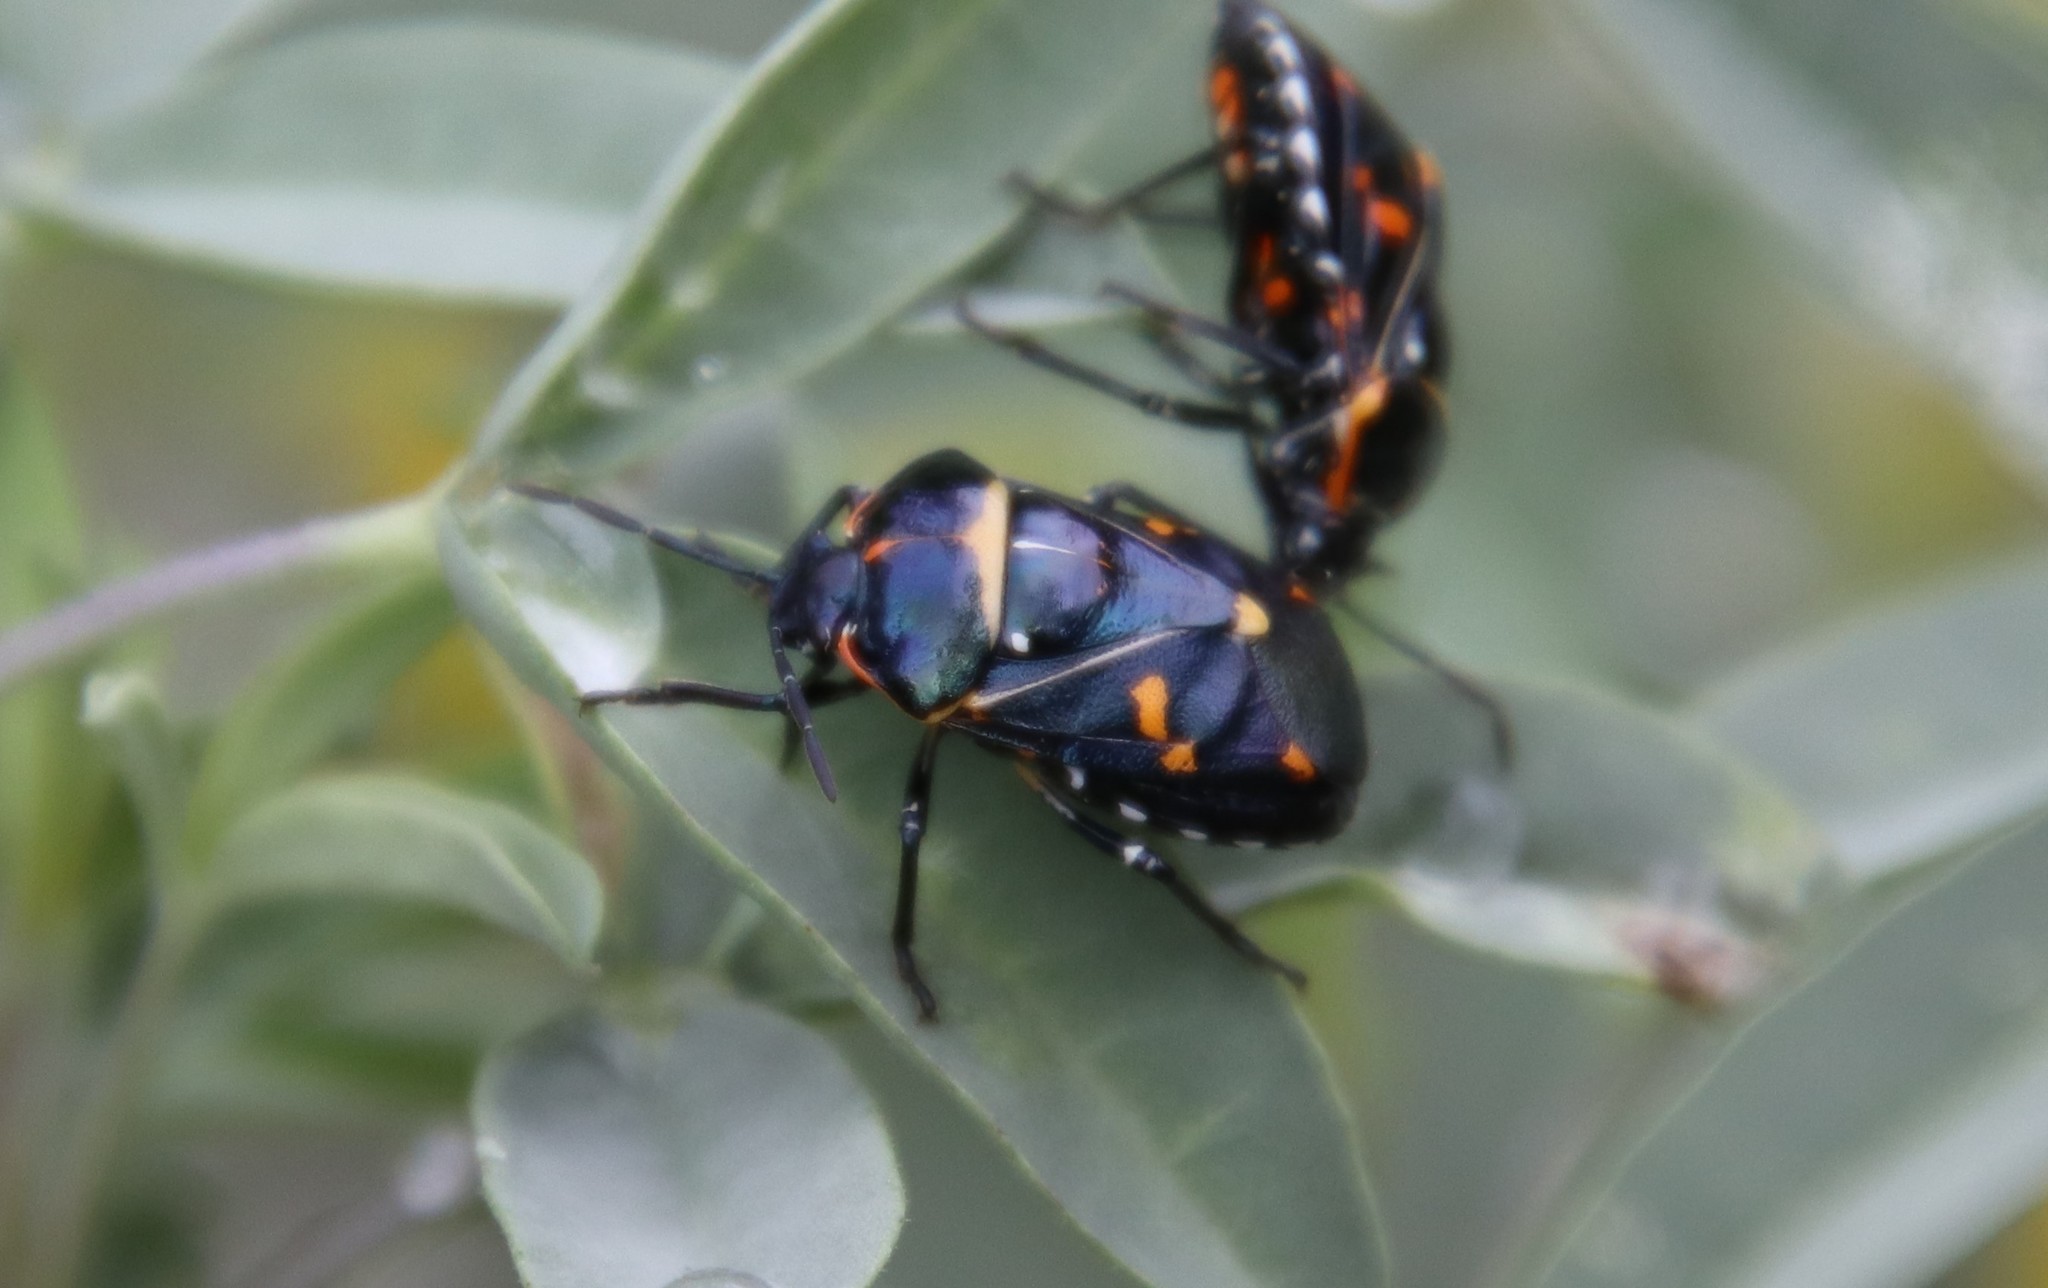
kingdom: Animalia
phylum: Arthropoda
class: Insecta
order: Hemiptera
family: Pentatomidae
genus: Murgantia
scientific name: Murgantia histrionica
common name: Harlequin bug
